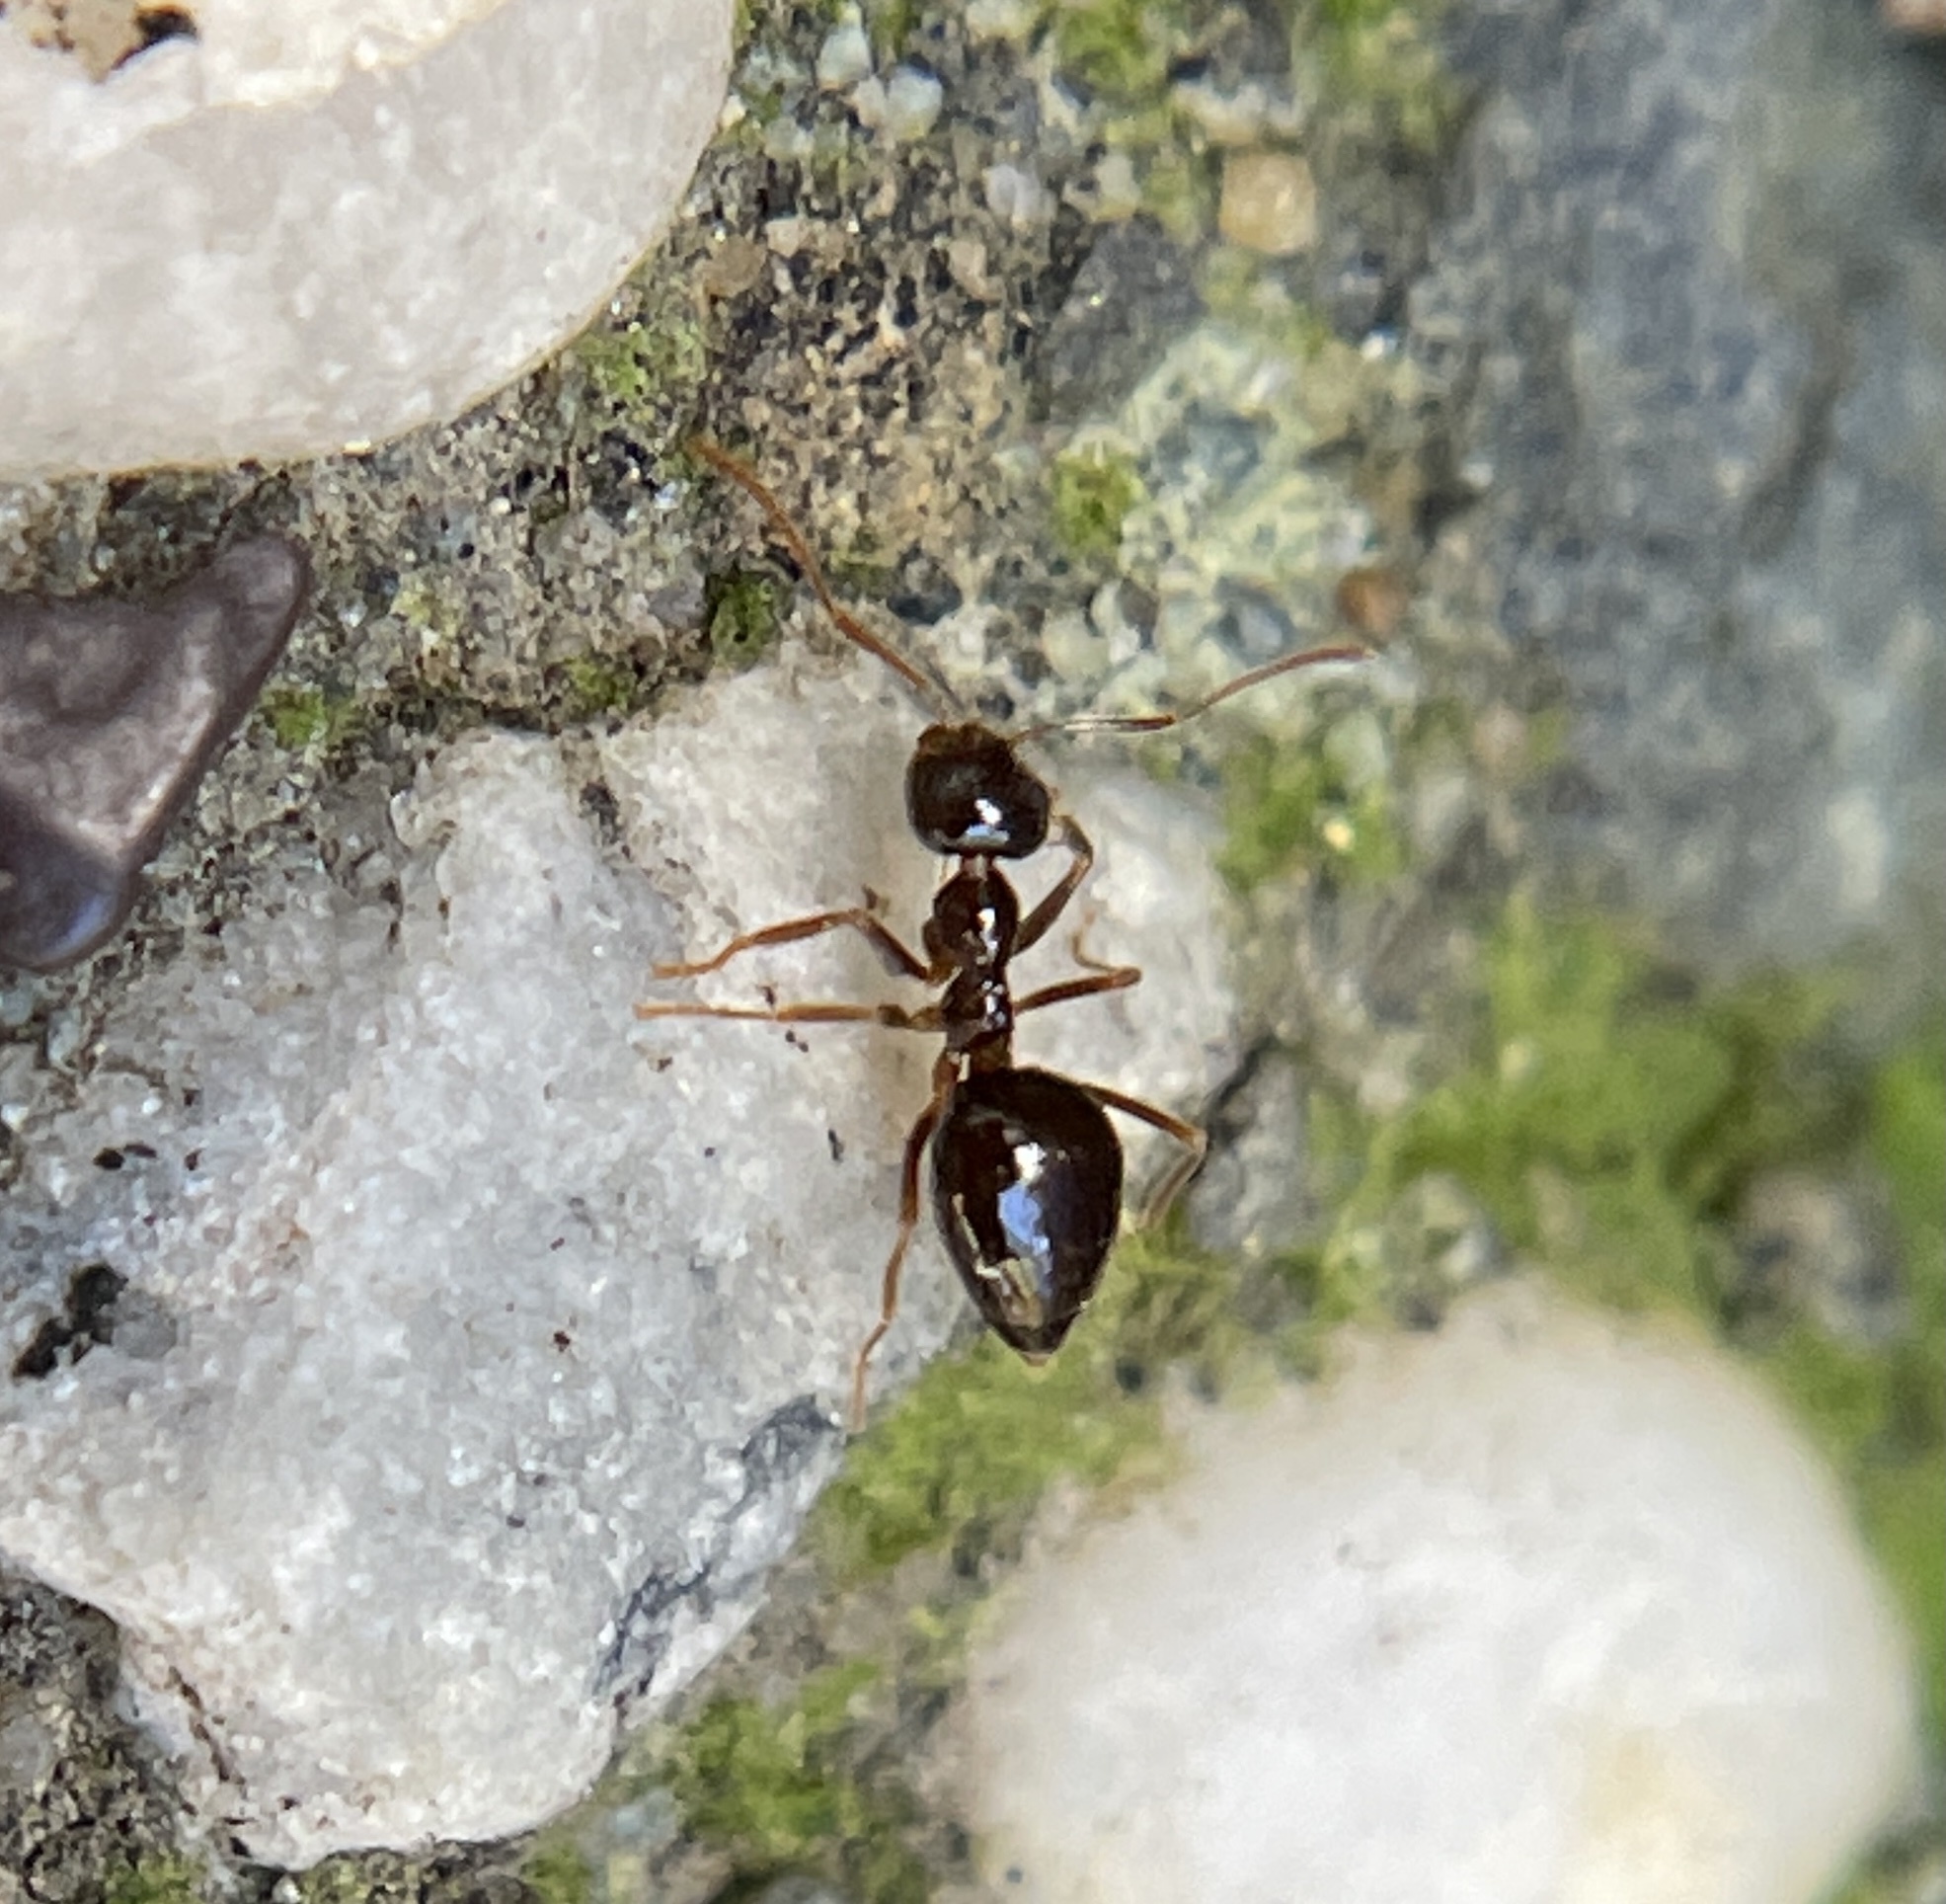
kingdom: Animalia
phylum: Arthropoda
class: Insecta
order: Hymenoptera
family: Formicidae
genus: Prenolepis
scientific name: Prenolepis imparis
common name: Small honey ant
